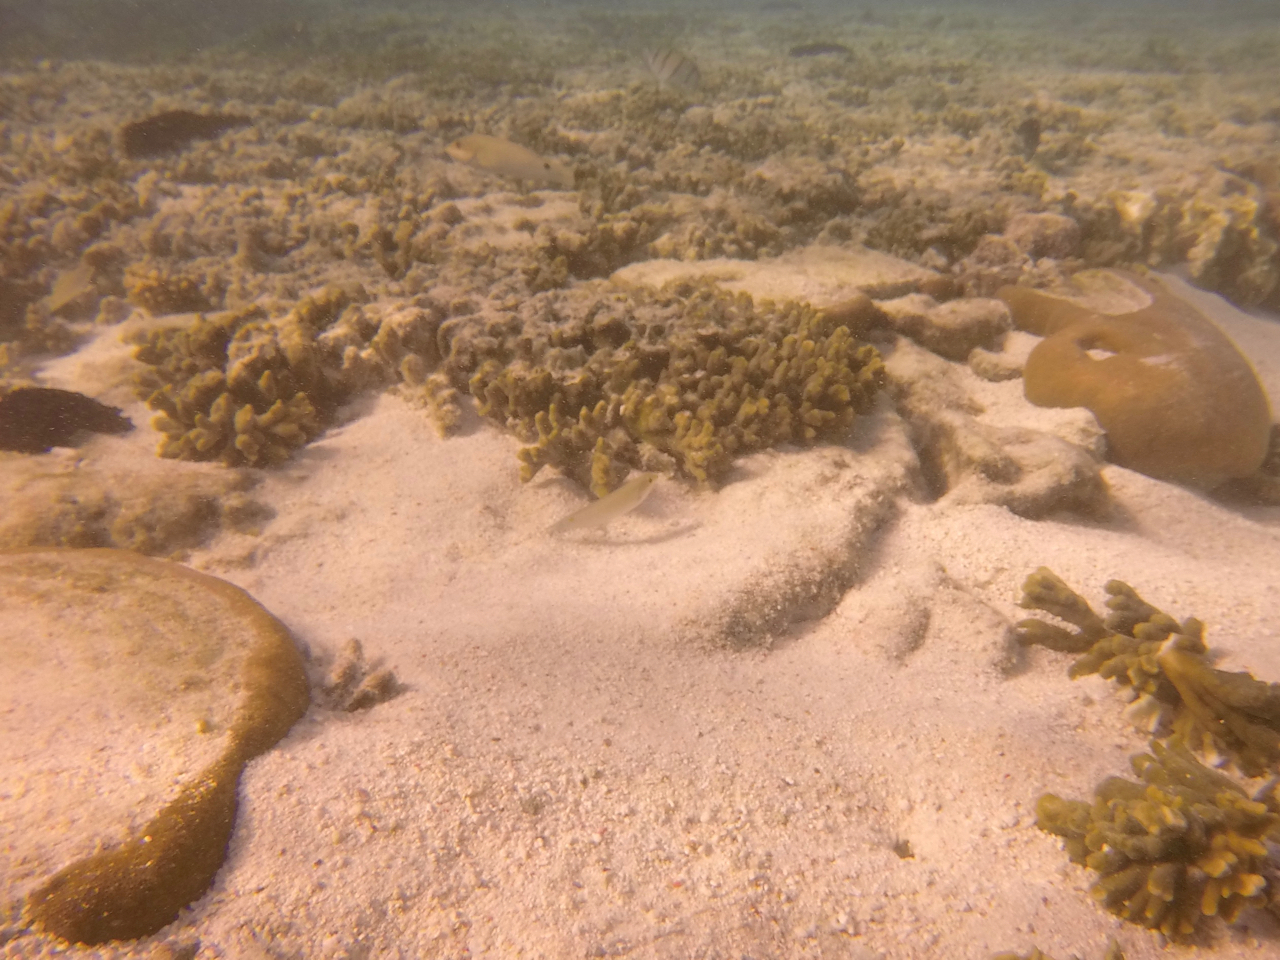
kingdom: Animalia
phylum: Chordata
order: Perciformes
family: Labridae
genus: Halichoeres
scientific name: Halichoeres trimaculatus
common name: Three-spot wrasse
